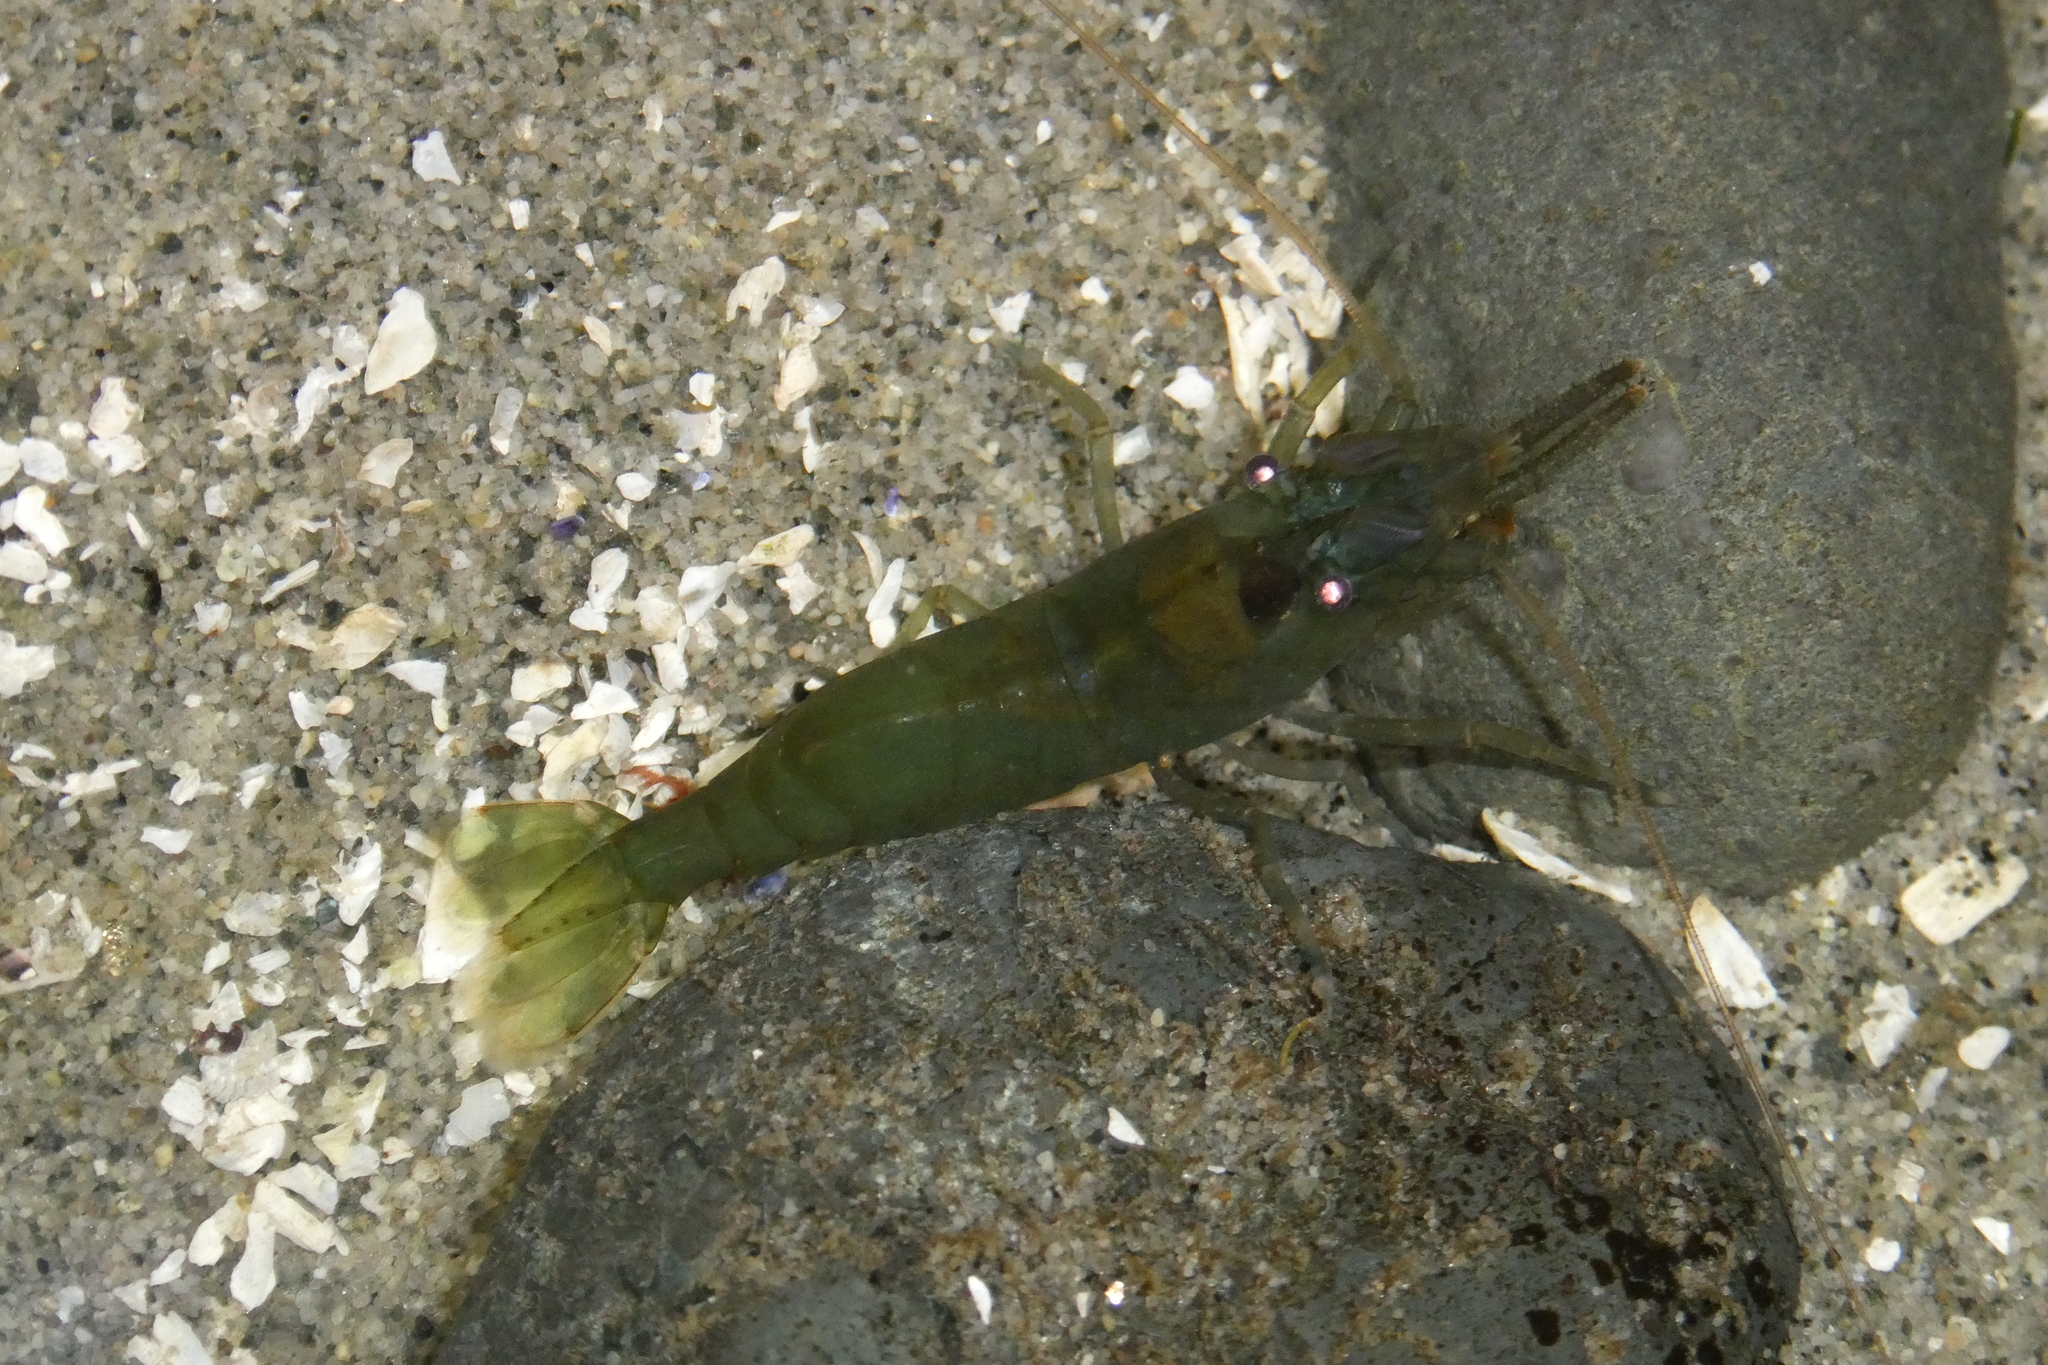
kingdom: Animalia
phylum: Arthropoda
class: Malacostraca
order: Decapoda
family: Thoridae
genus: Heptacarpus
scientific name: Heptacarpus brevirostris
